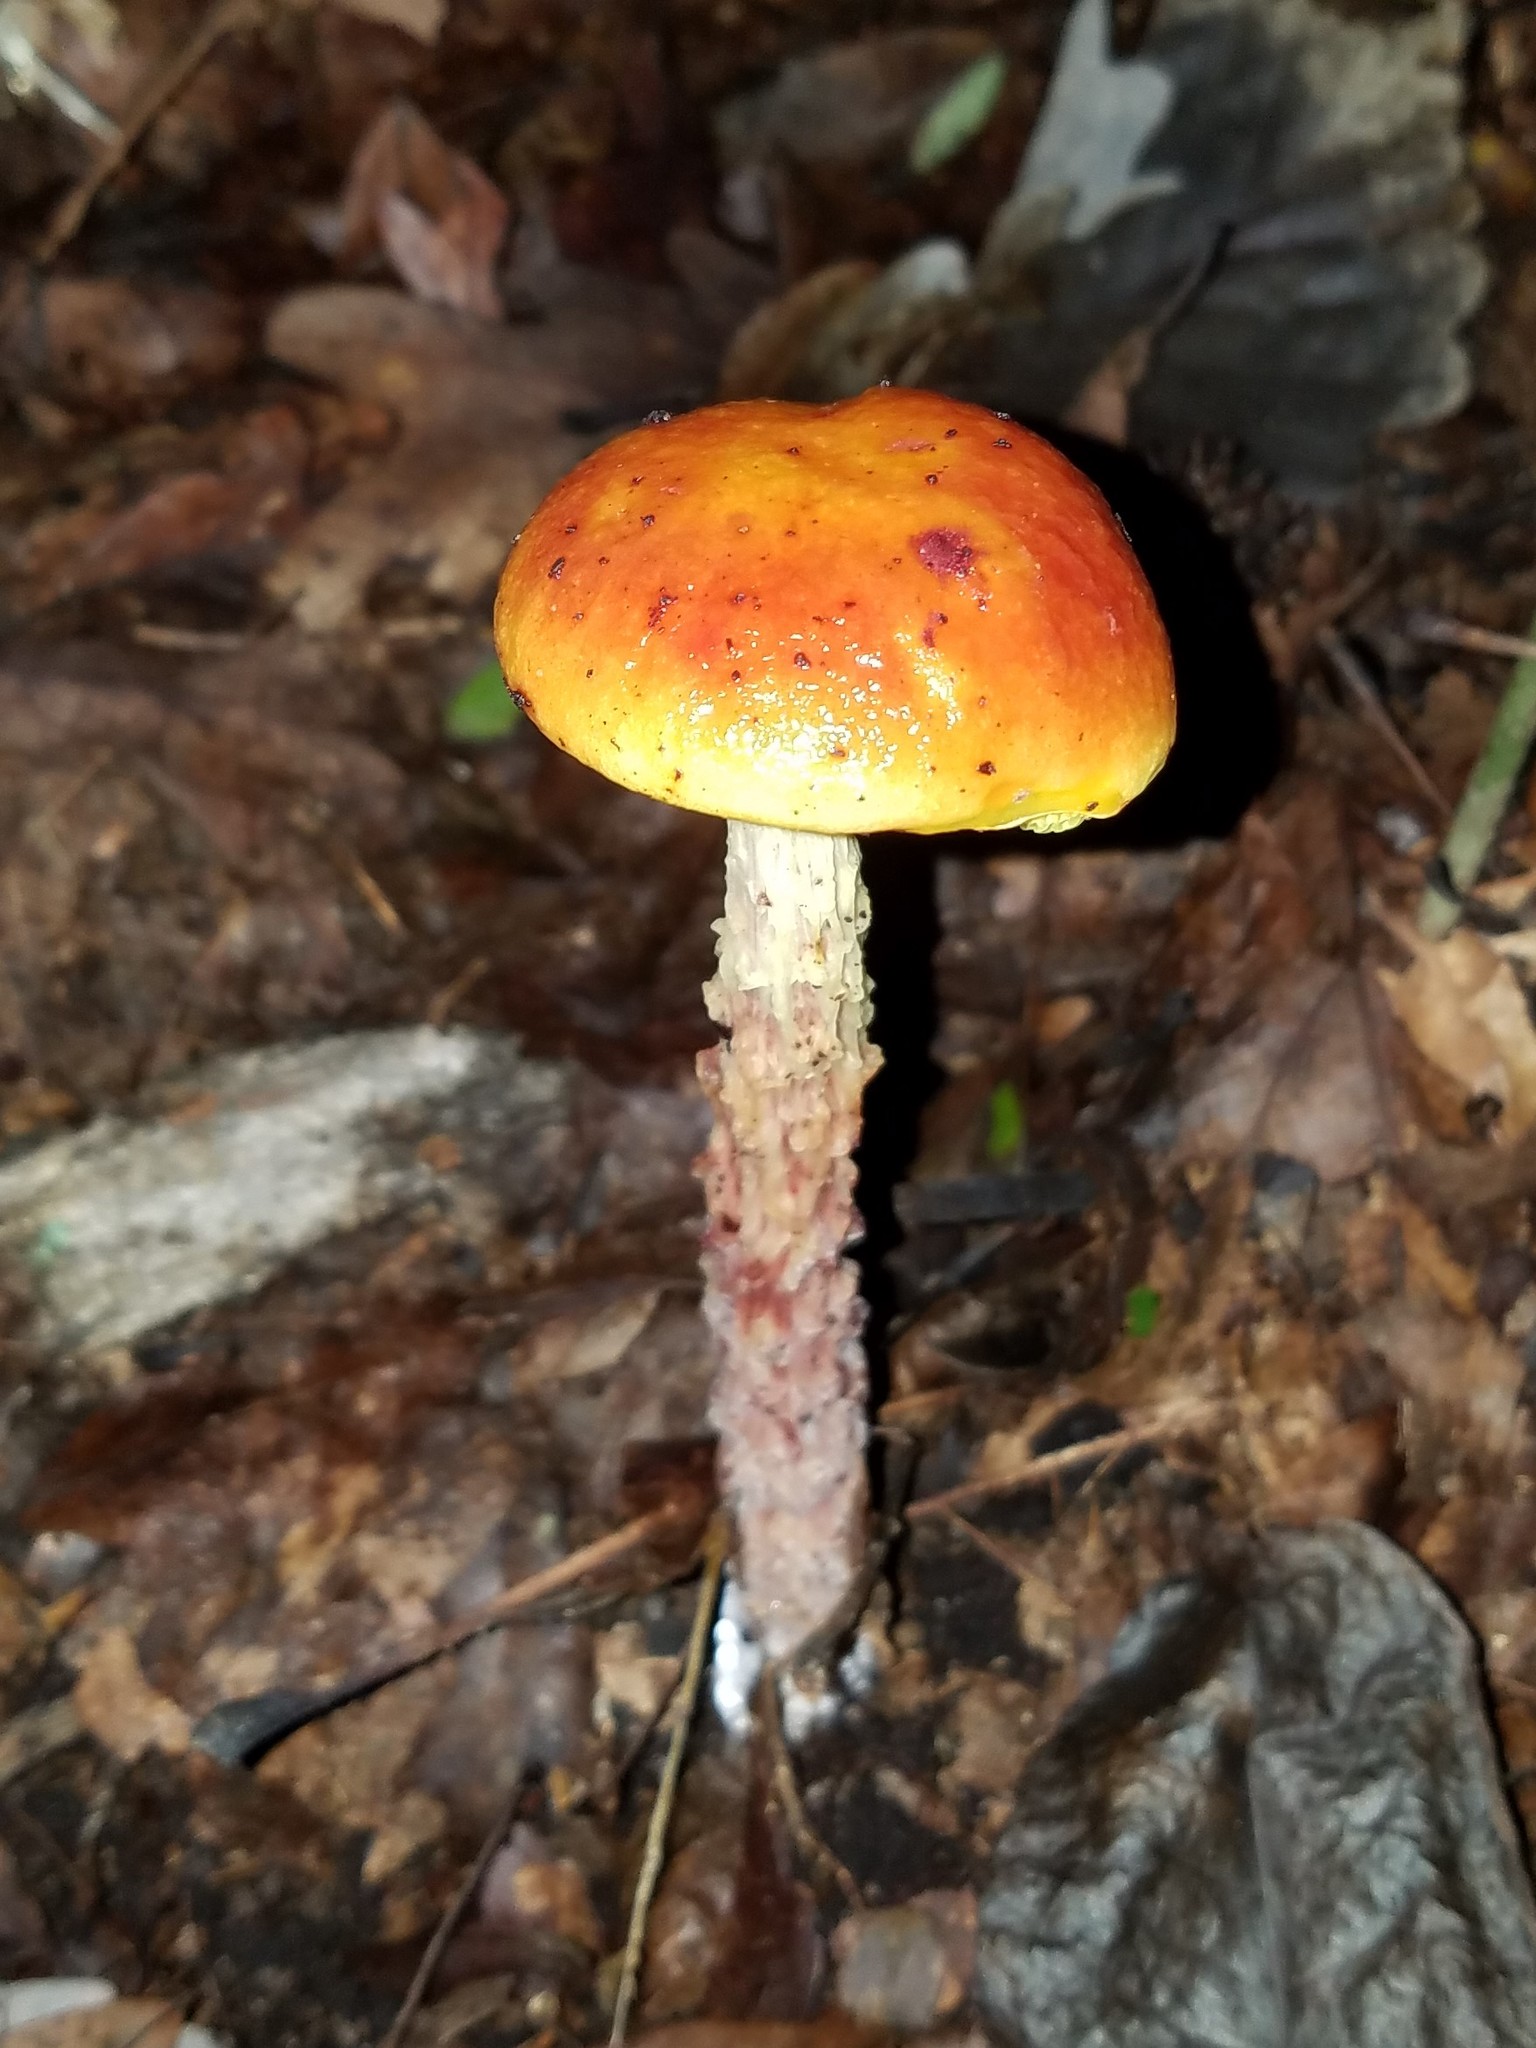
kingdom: Fungi
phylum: Basidiomycota
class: Agaricomycetes
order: Boletales
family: Boletaceae
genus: Aureoboletus
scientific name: Aureoboletus betula
